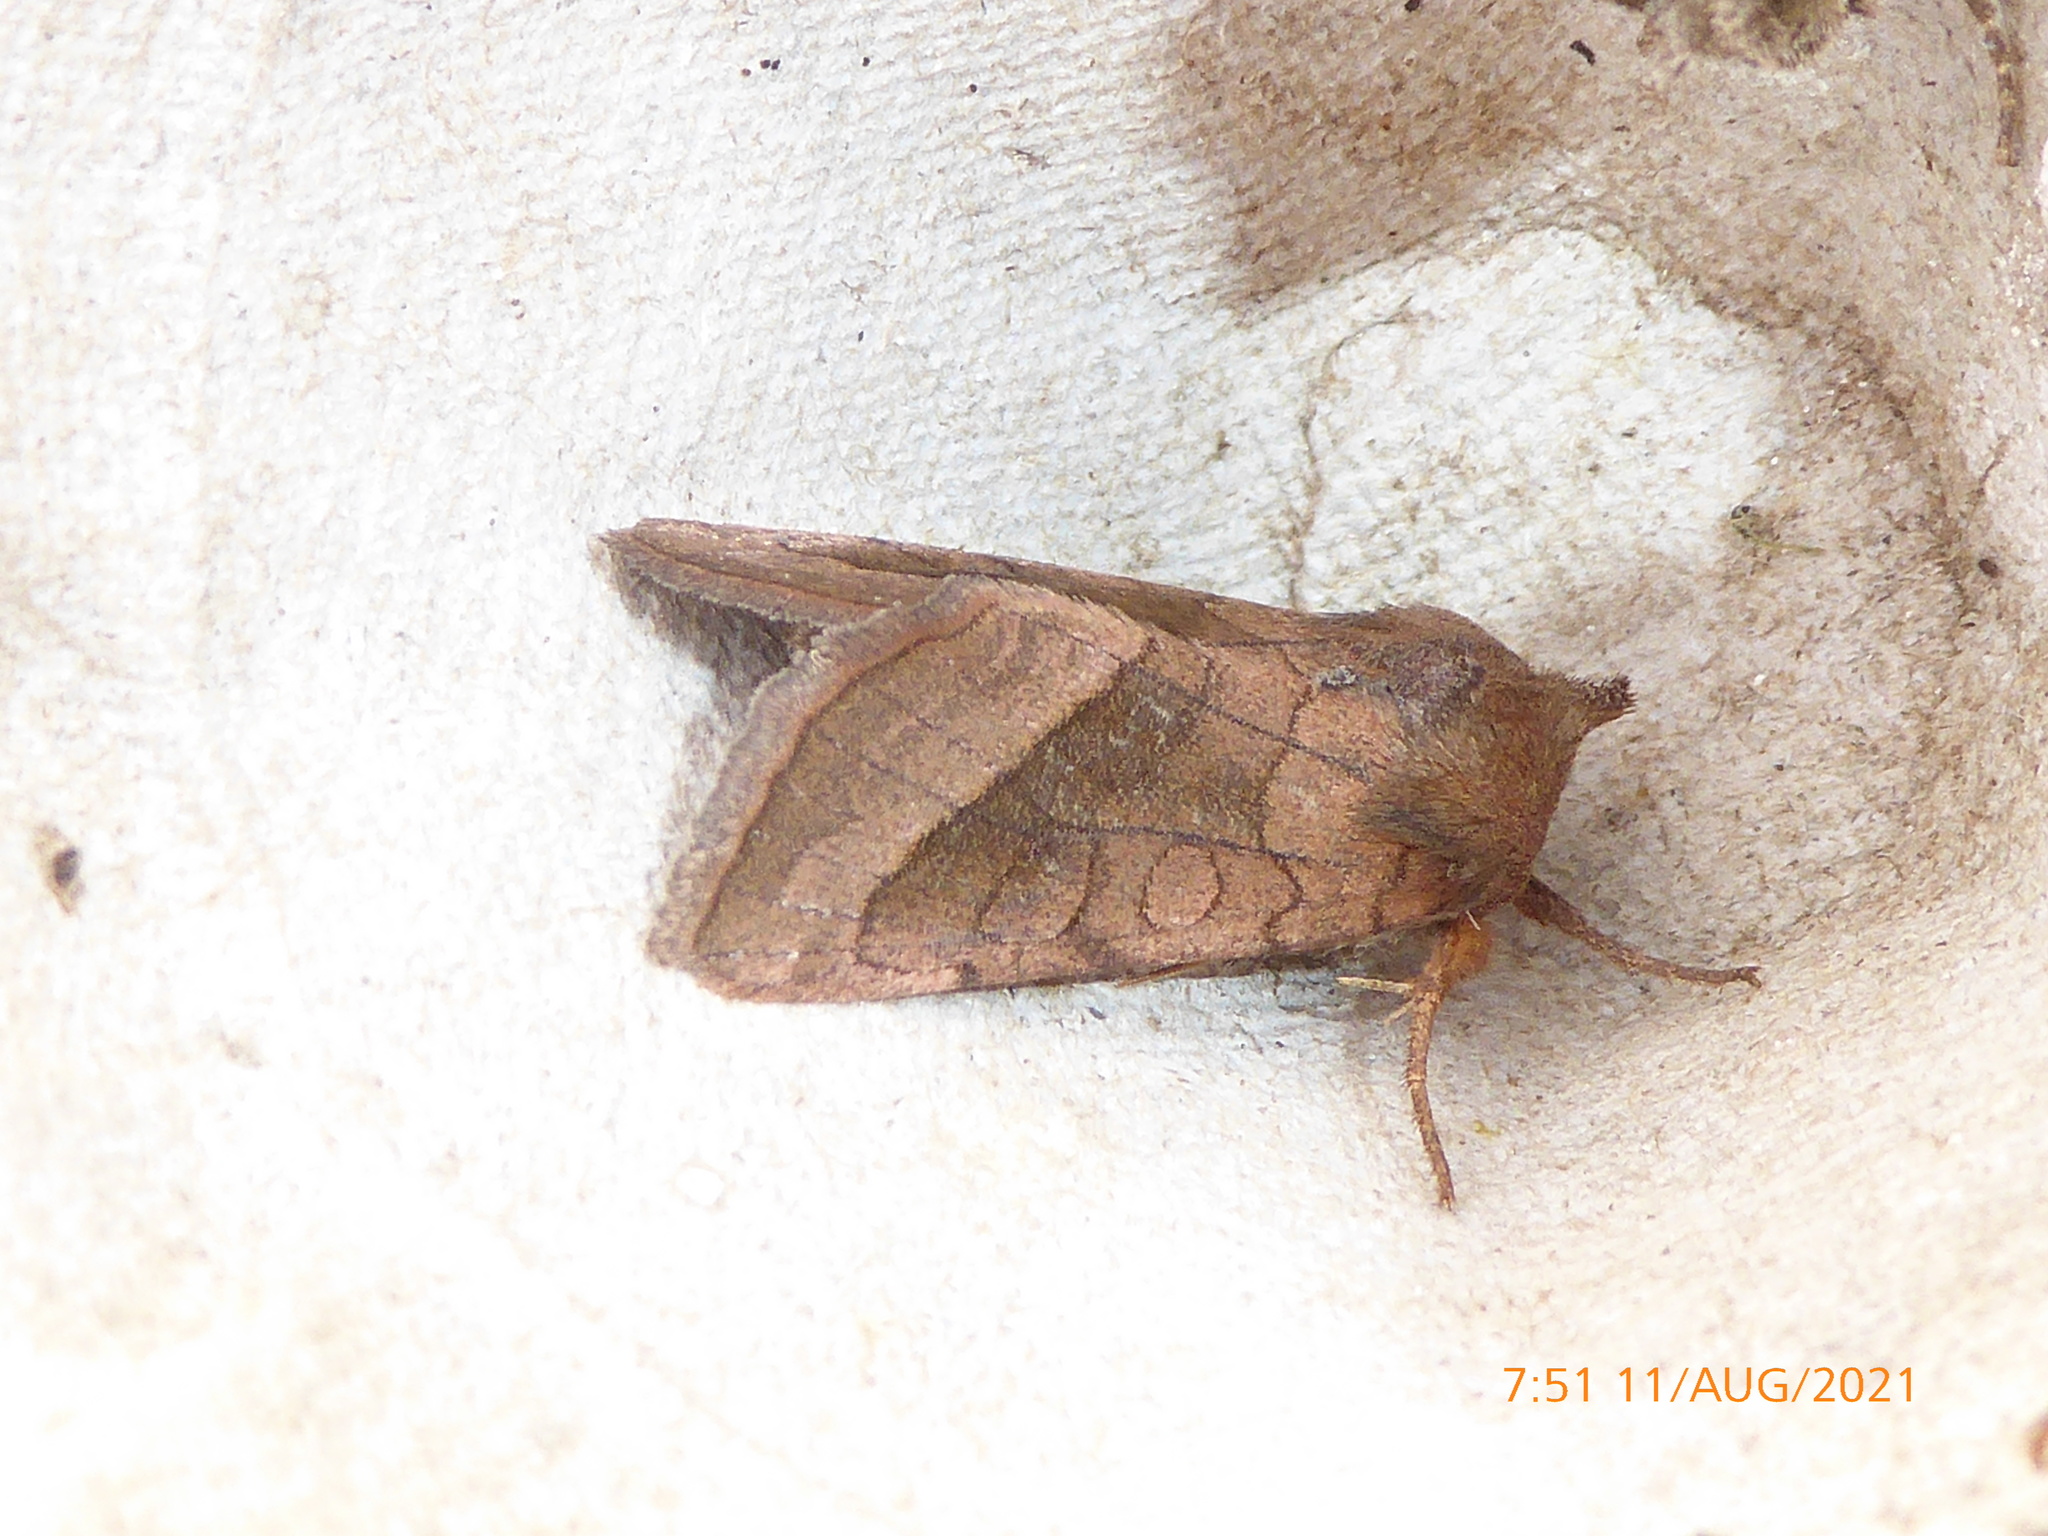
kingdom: Animalia
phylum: Arthropoda
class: Insecta
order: Lepidoptera
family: Noctuidae
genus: Hydraecia
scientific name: Hydraecia micacea
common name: Rosy rustic
